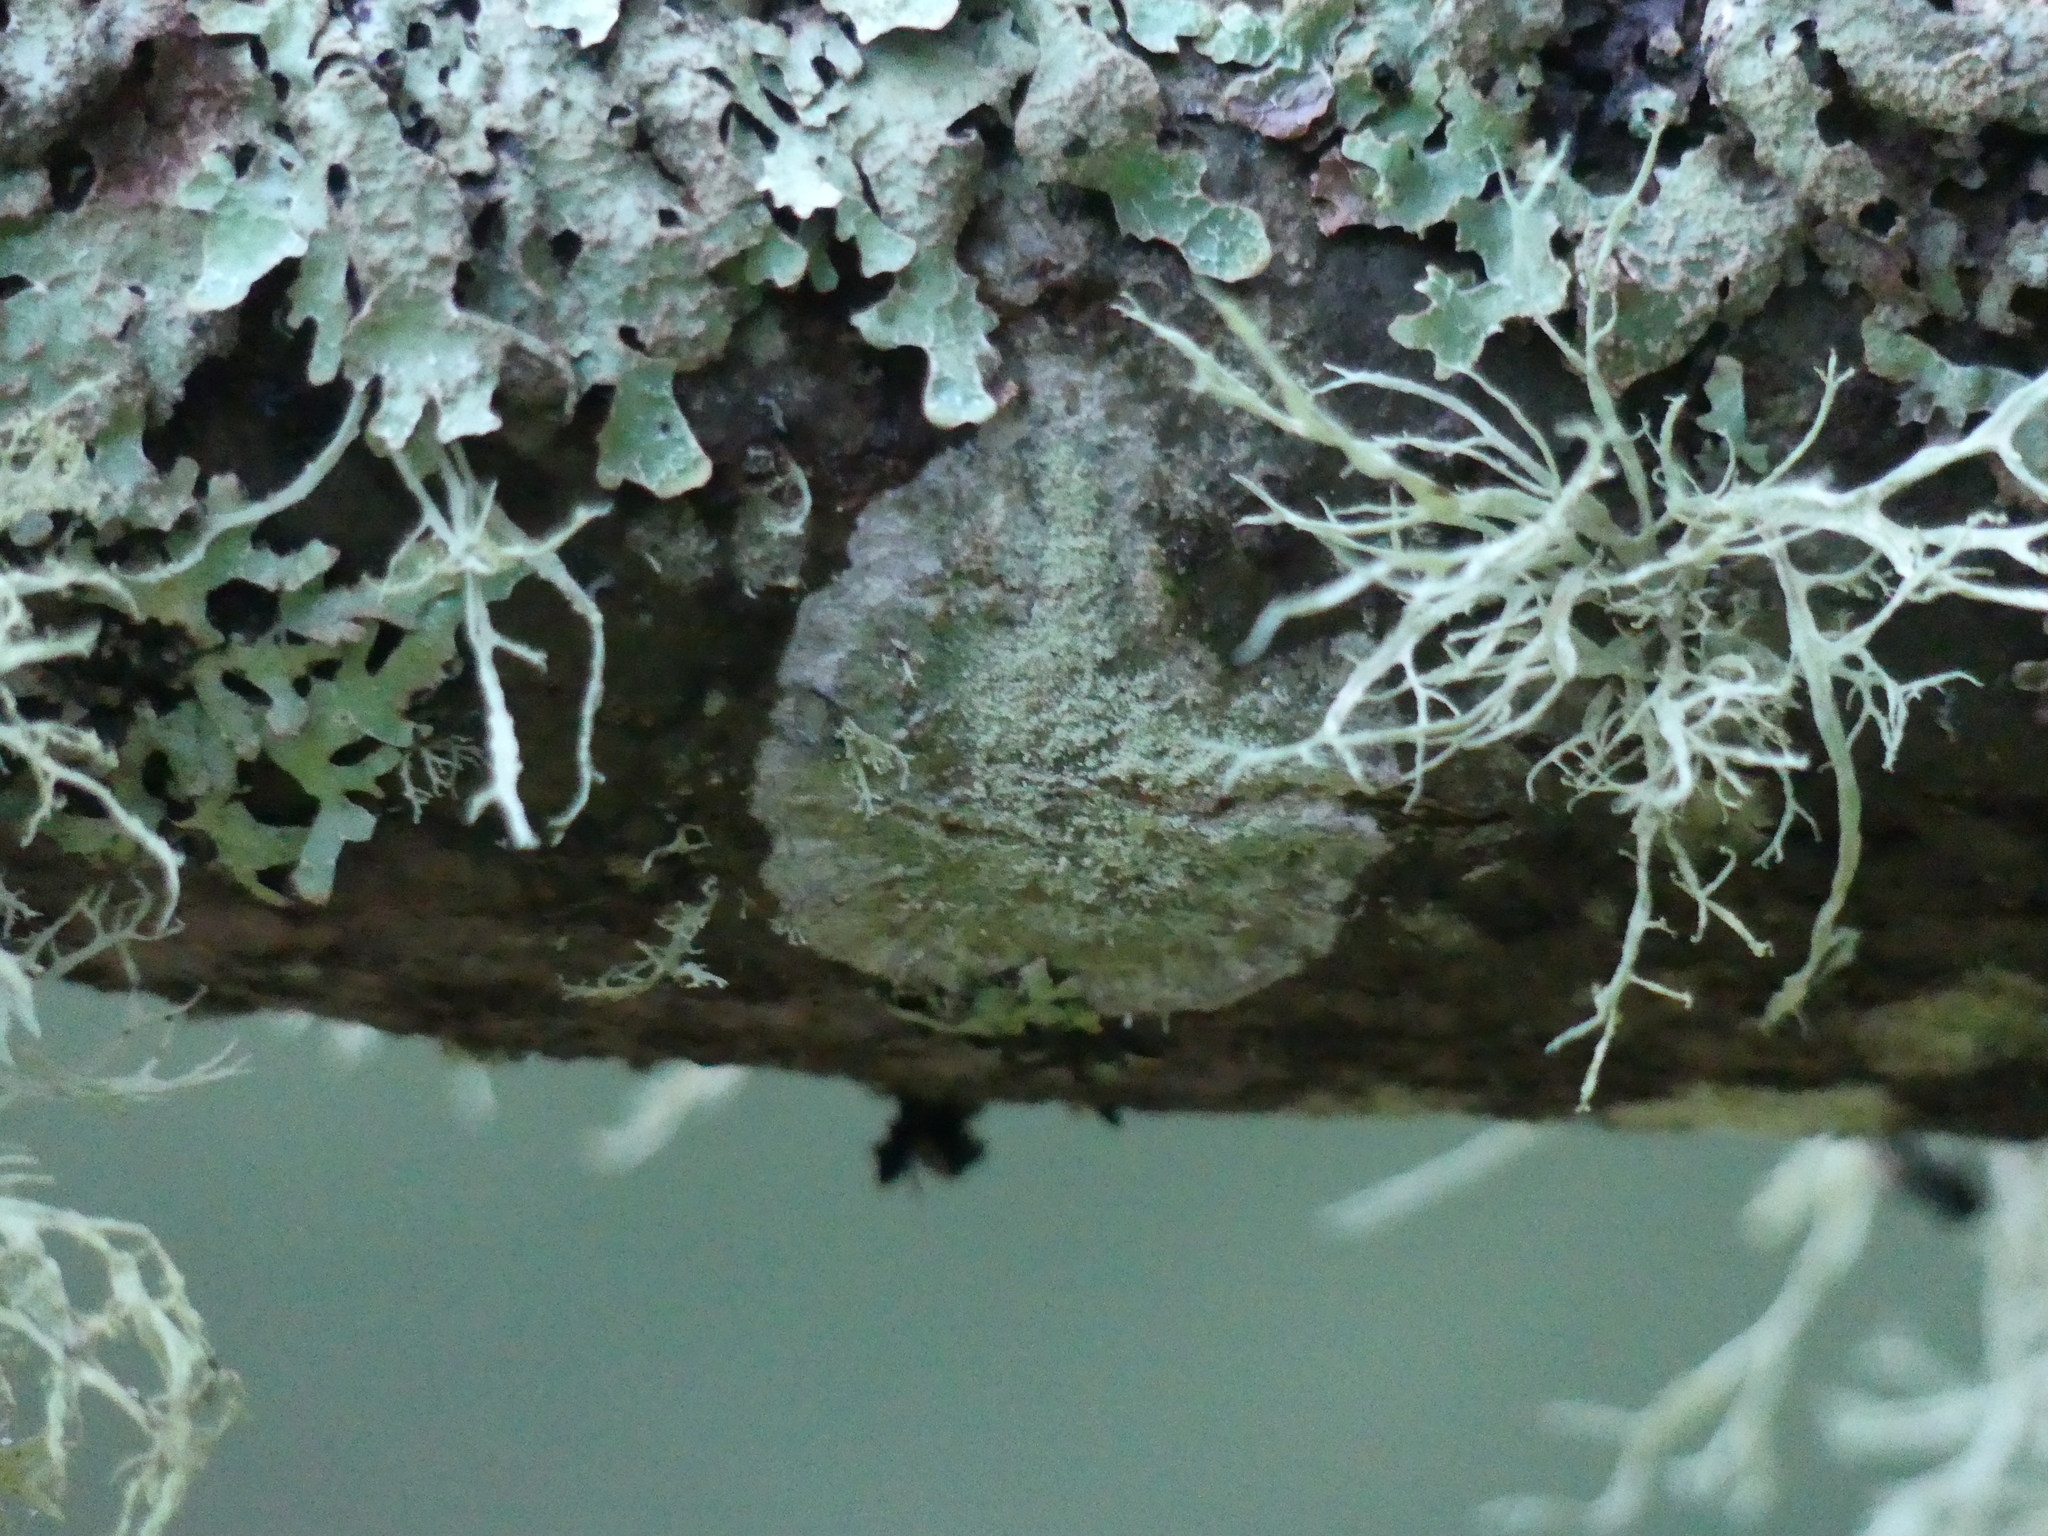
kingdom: Fungi
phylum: Ascomycota
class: Lecanoromycetes
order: Lecanorales
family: Ramalinaceae
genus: Ramalina
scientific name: Ramalina farinacea
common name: Farinose cartilage lichen
